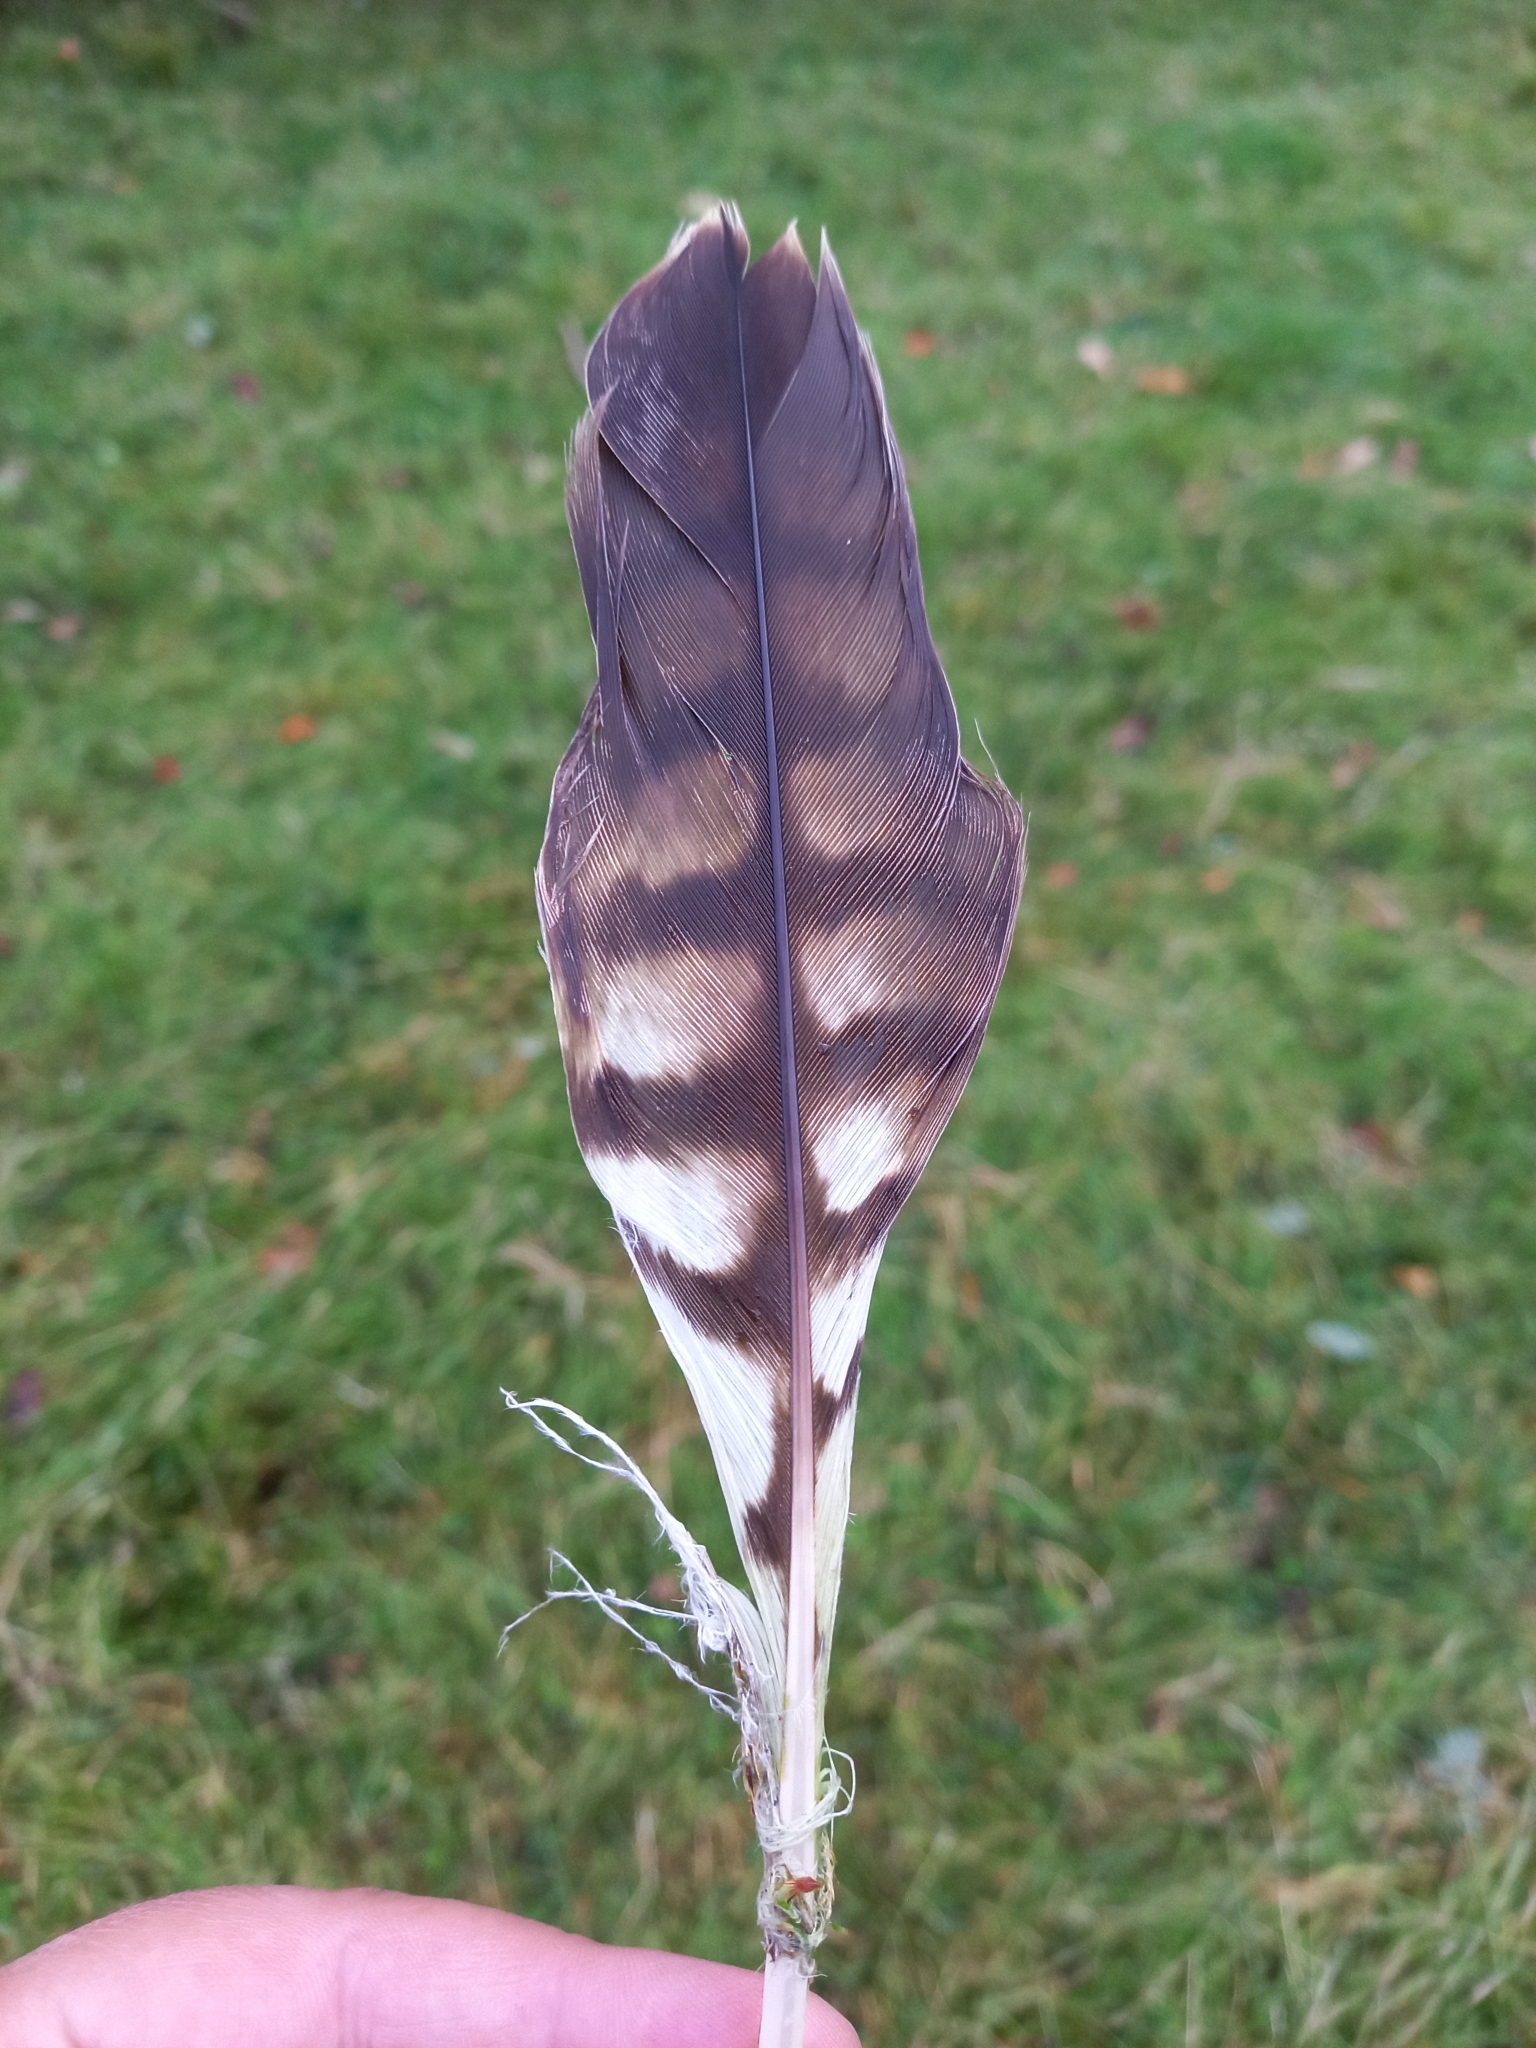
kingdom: Animalia
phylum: Chordata
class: Aves
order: Accipitriformes
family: Accipitridae
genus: Milvus
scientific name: Milvus milvus
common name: Red kite
